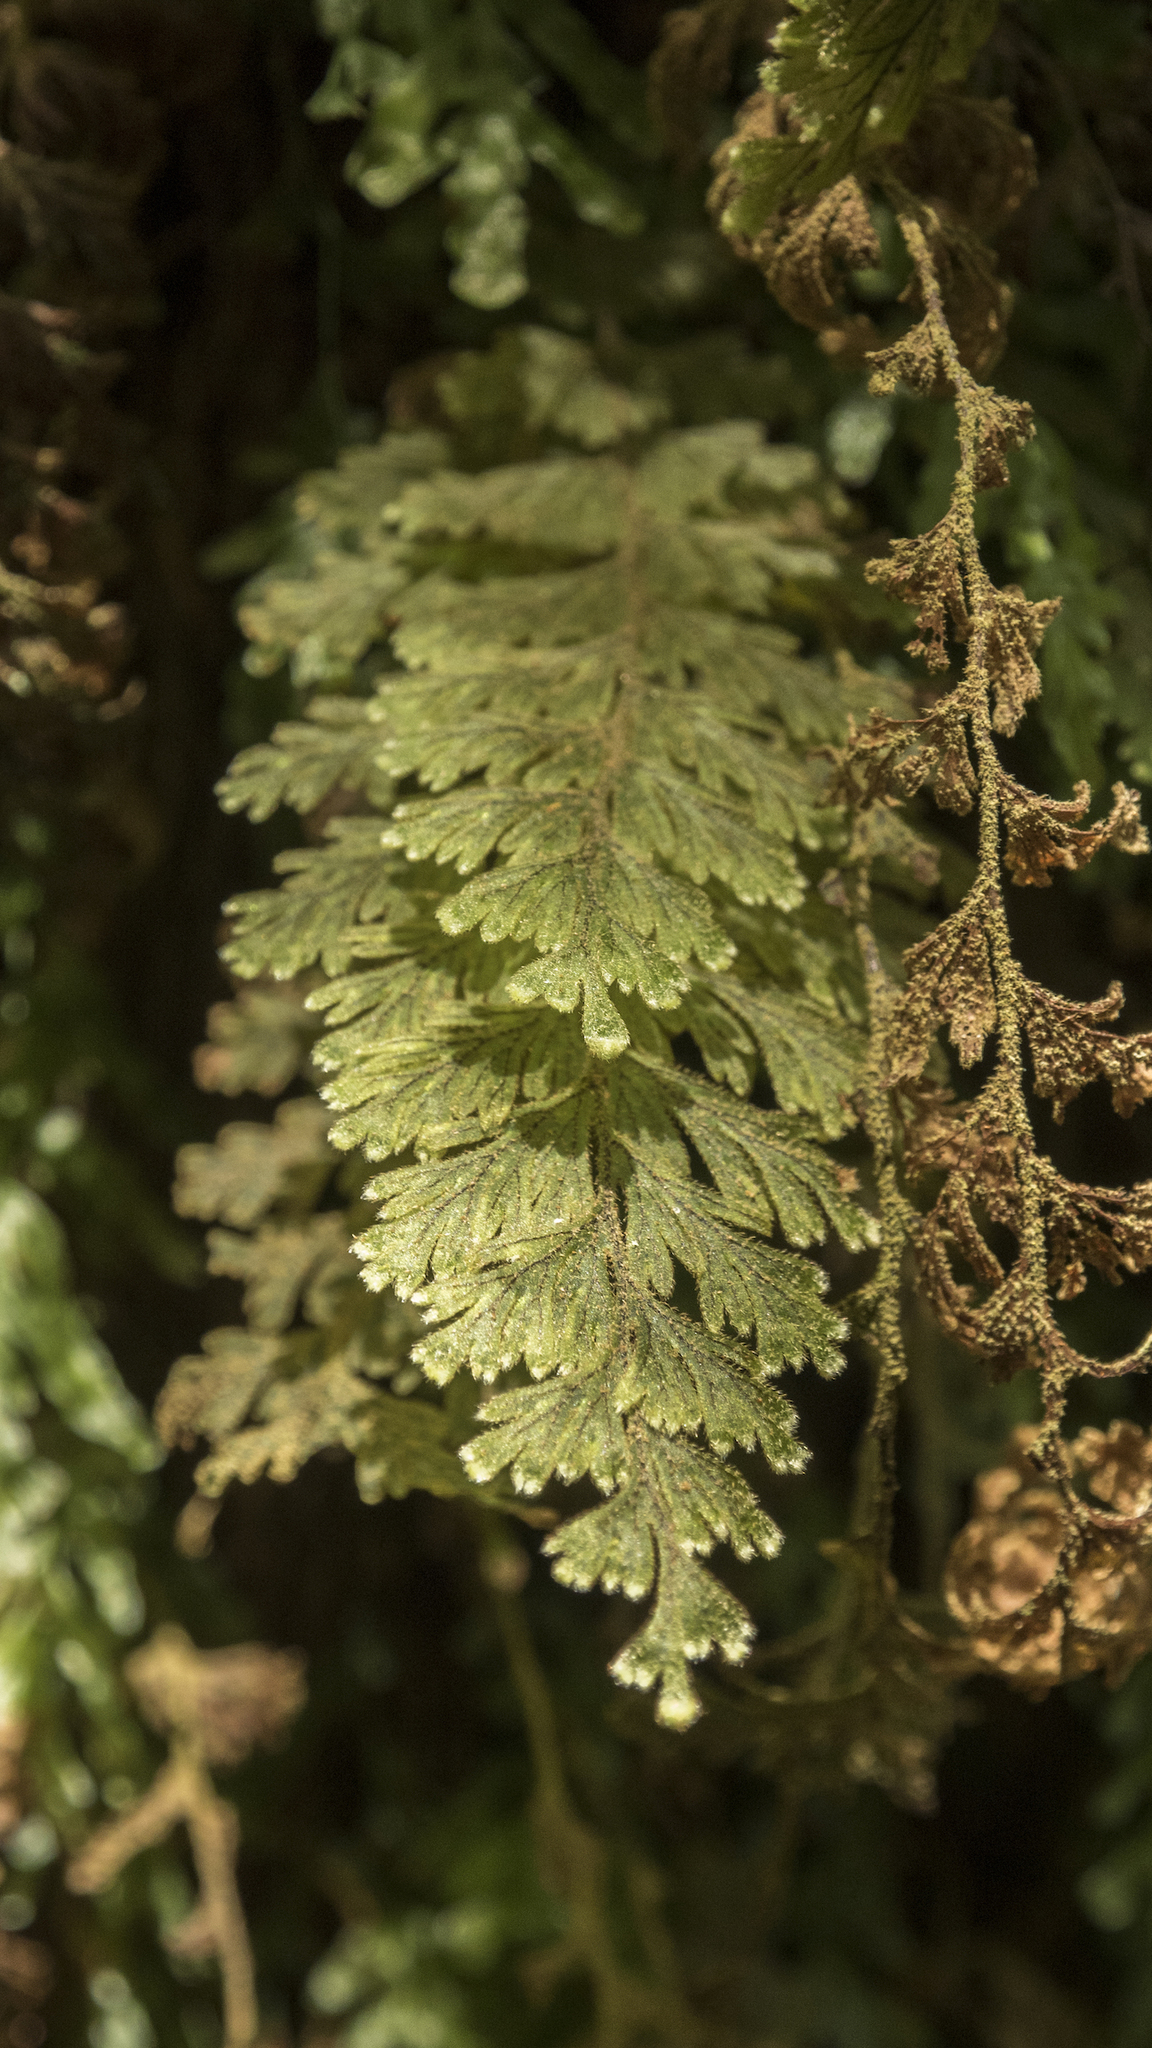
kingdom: Plantae
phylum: Tracheophyta
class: Polypodiopsida
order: Hymenophyllales
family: Hymenophyllaceae
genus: Hymenophyllum
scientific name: Hymenophyllum frankliniae
